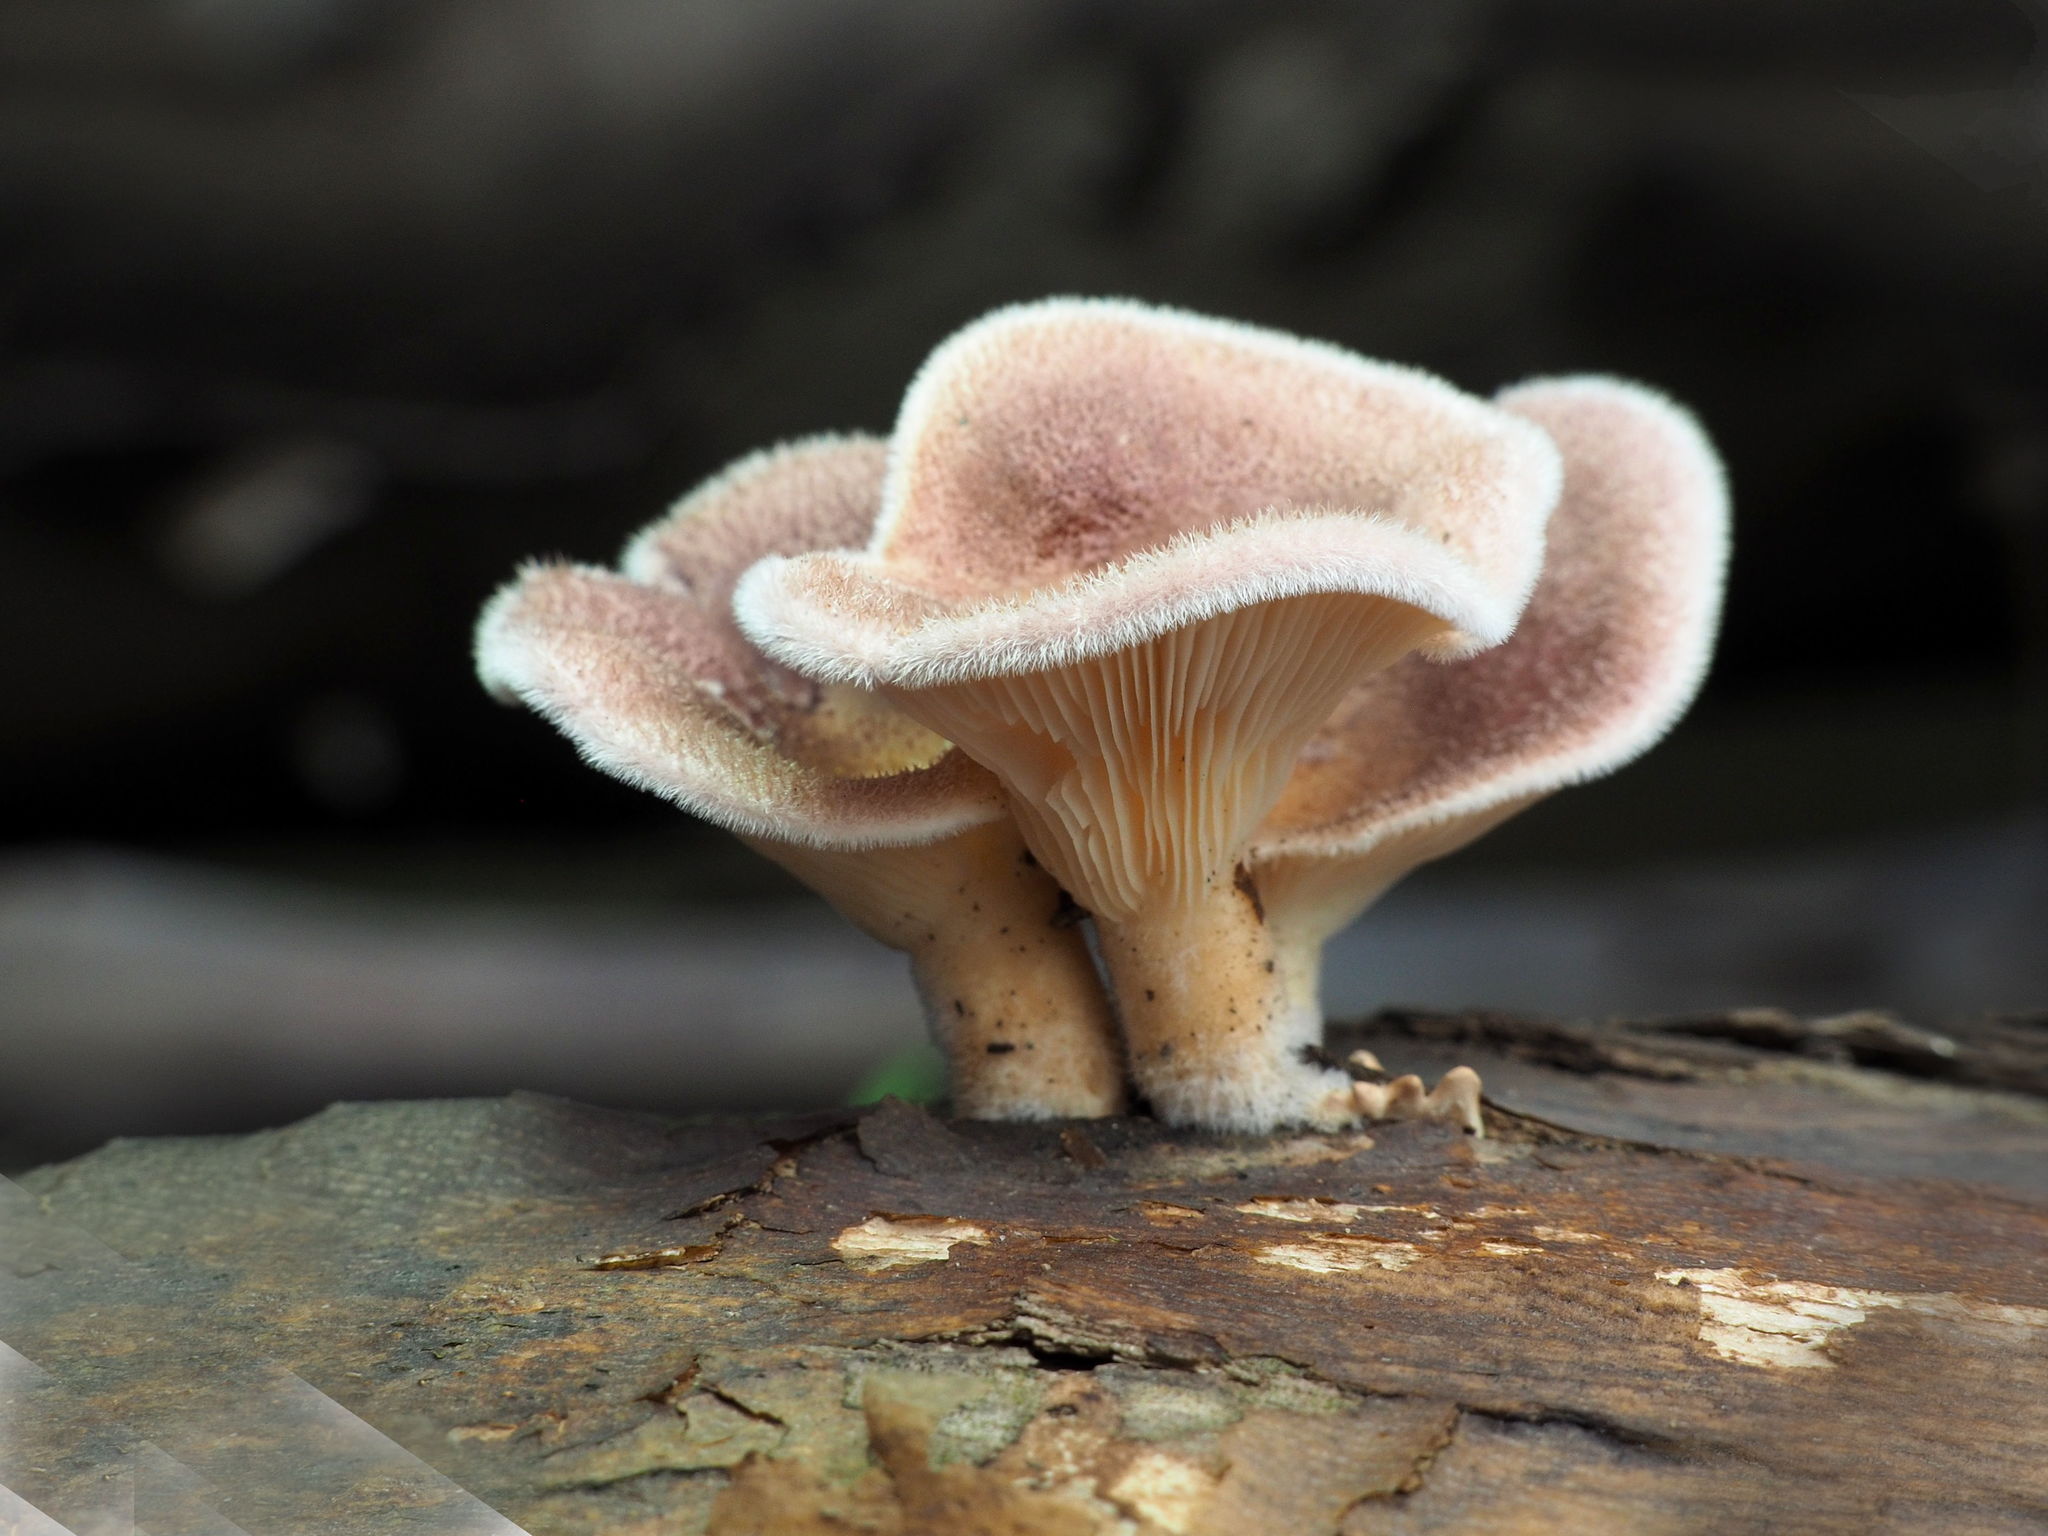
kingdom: Fungi
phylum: Basidiomycota
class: Agaricomycetes
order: Polyporales
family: Panaceae
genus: Panus
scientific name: Panus neostrigosus
